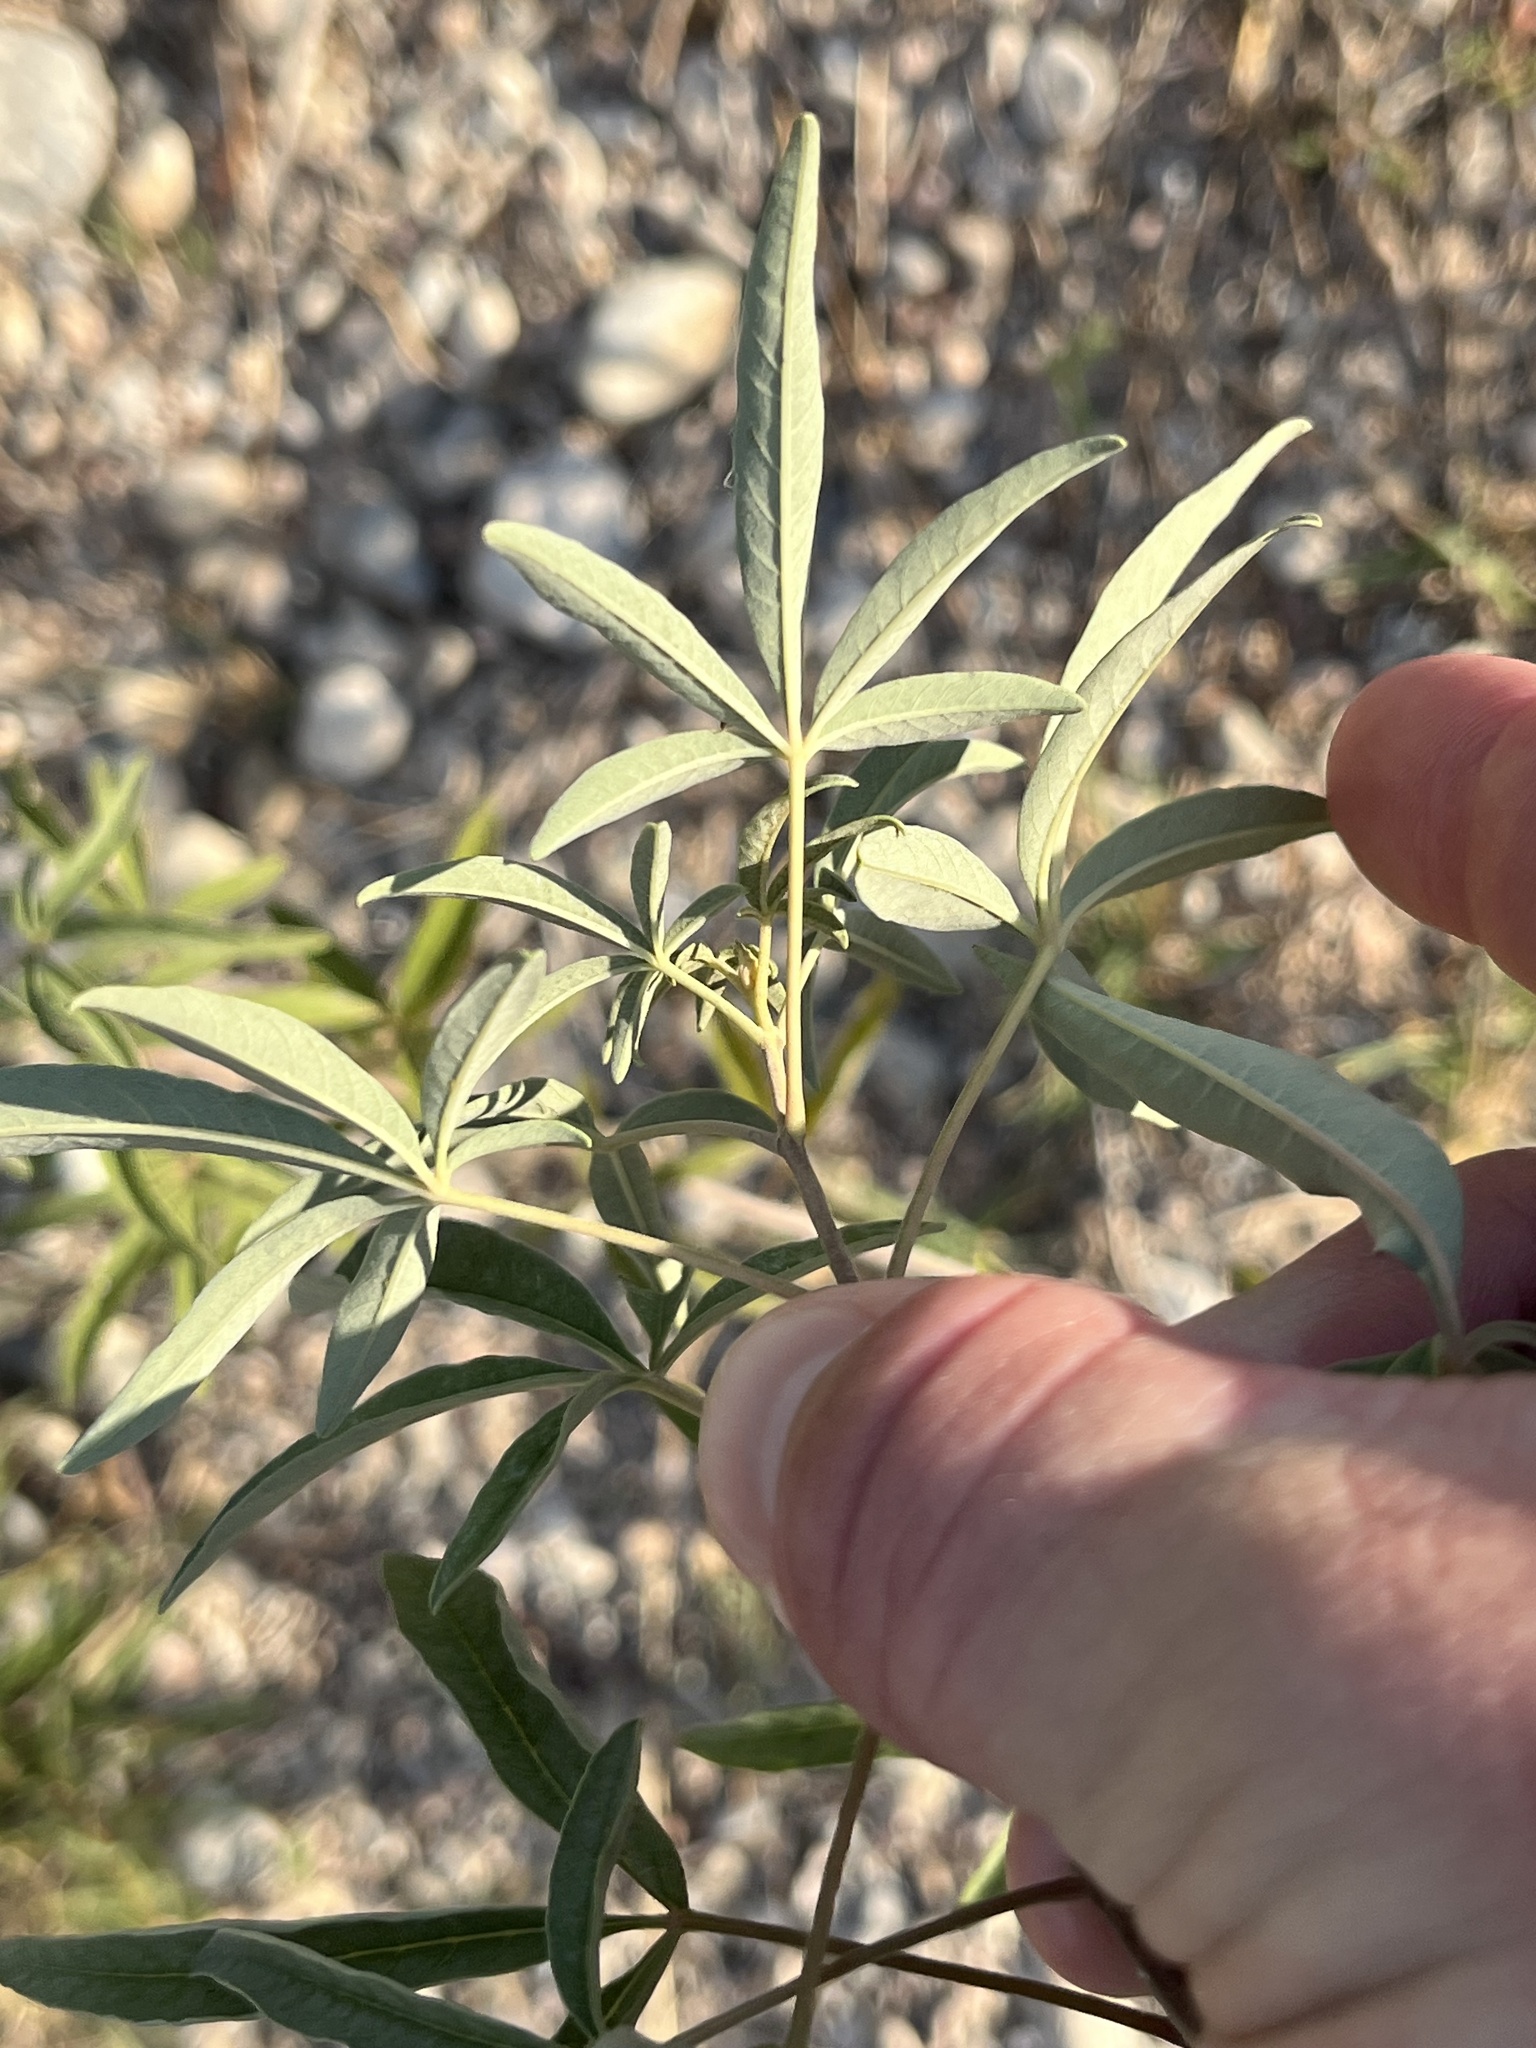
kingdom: Plantae
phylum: Tracheophyta
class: Magnoliopsida
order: Lamiales
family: Lamiaceae
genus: Vitex
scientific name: Vitex agnus-castus
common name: Chasteberry
